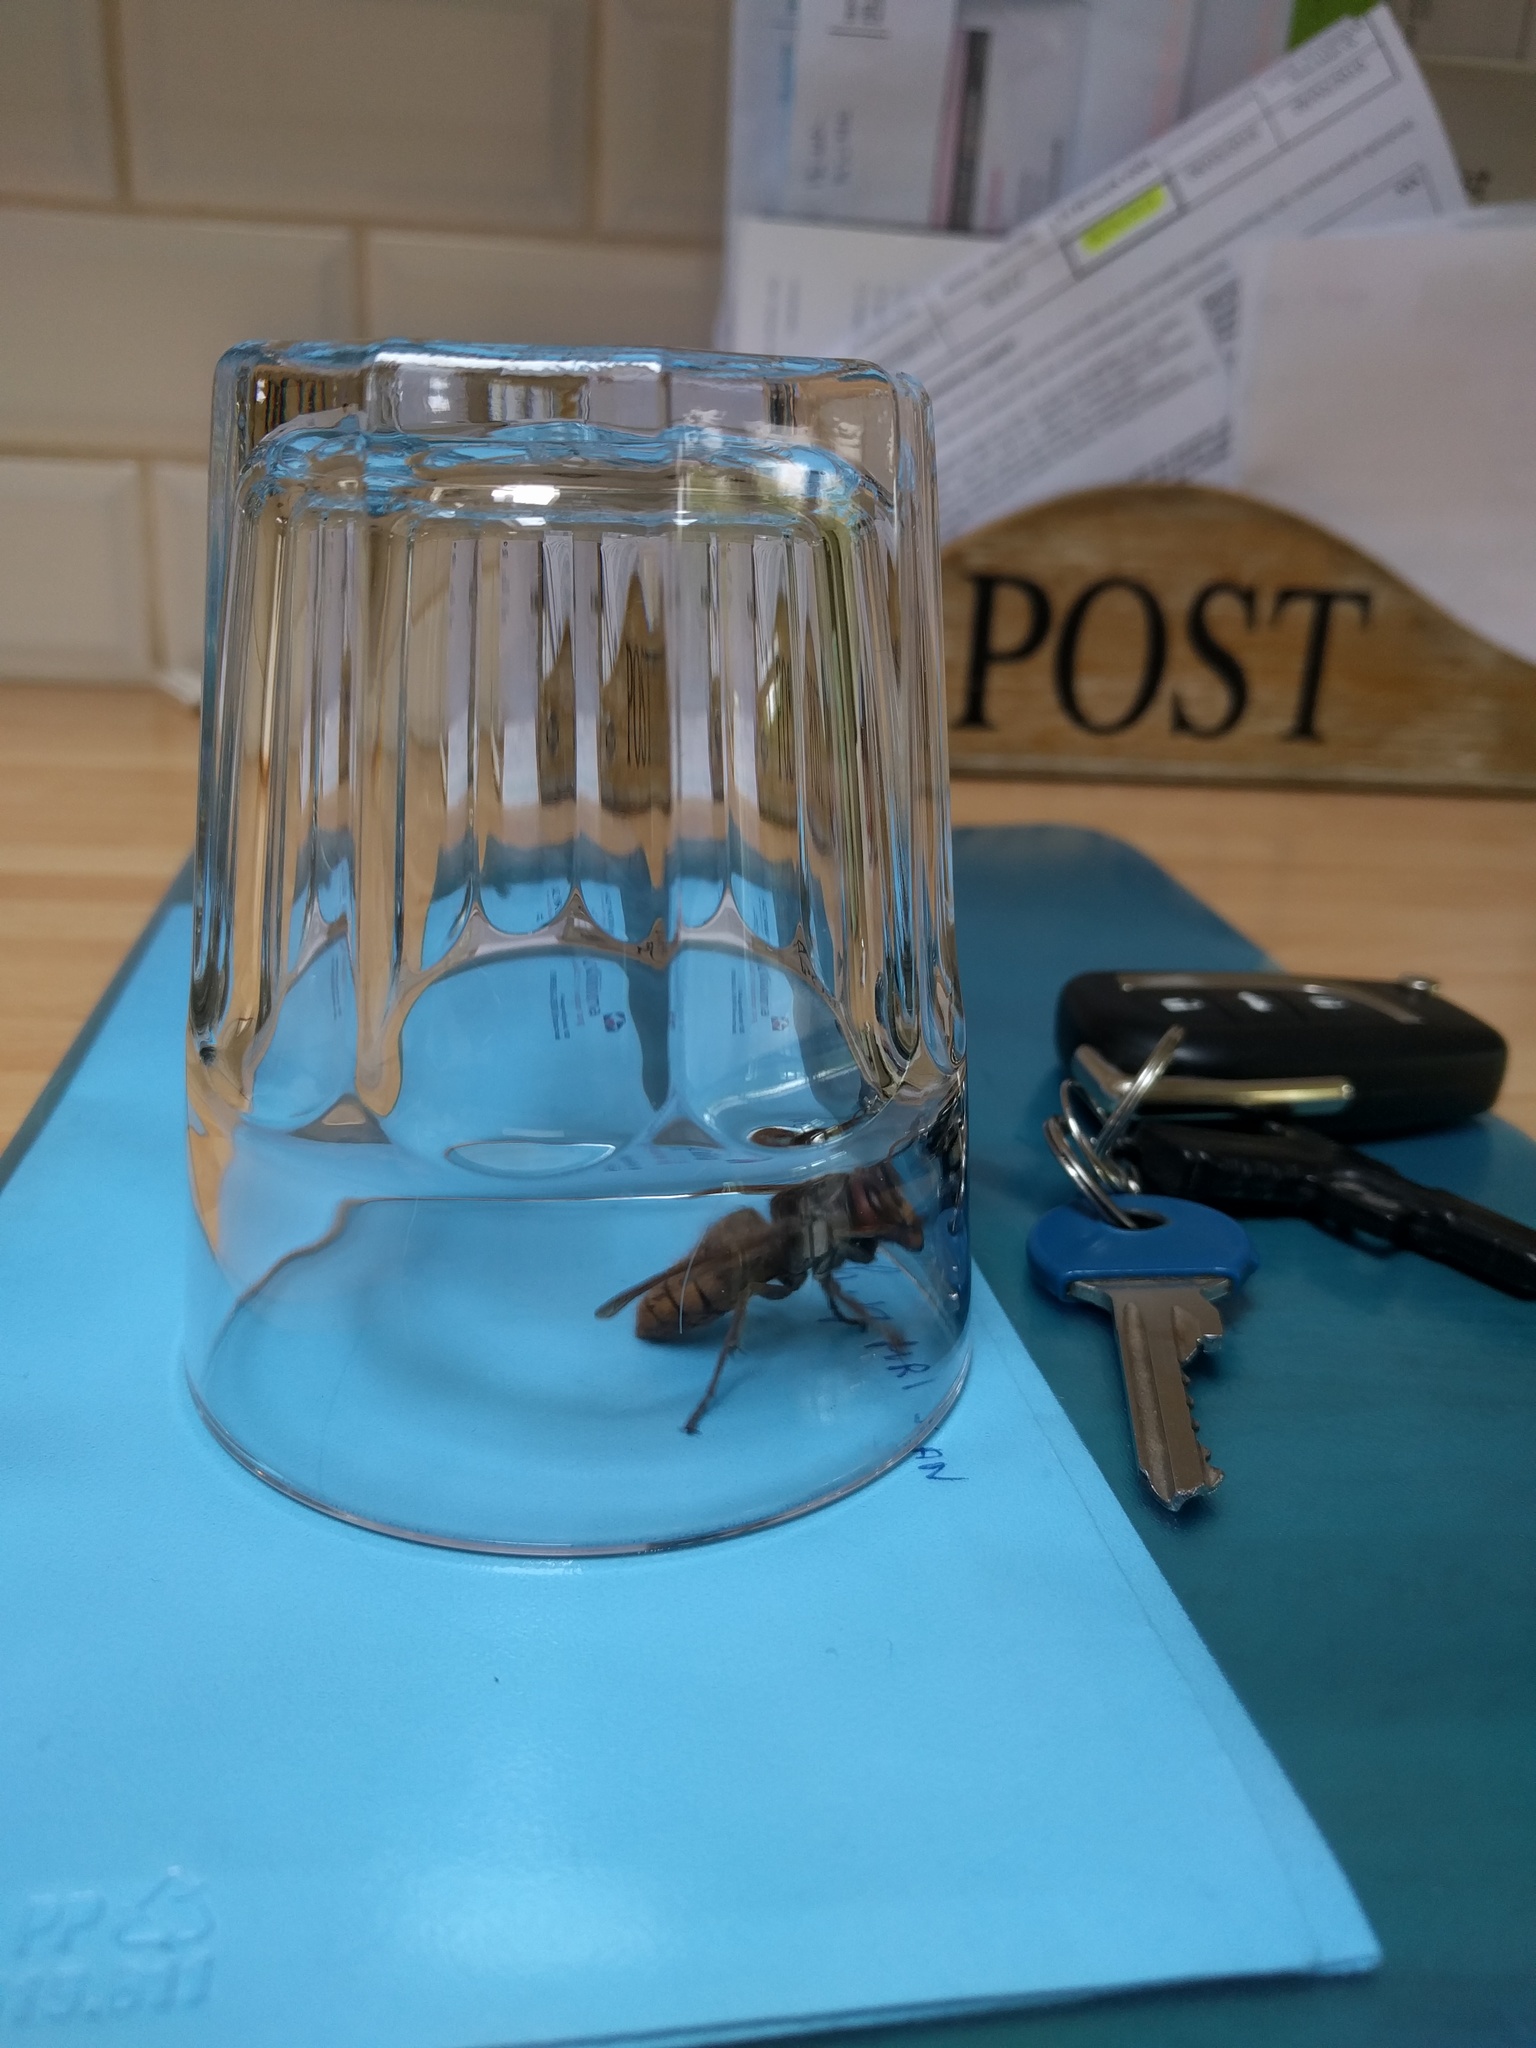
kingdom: Animalia
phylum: Arthropoda
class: Insecta
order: Hymenoptera
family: Vespidae
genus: Vespa
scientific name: Vespa crabro
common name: Hornet
